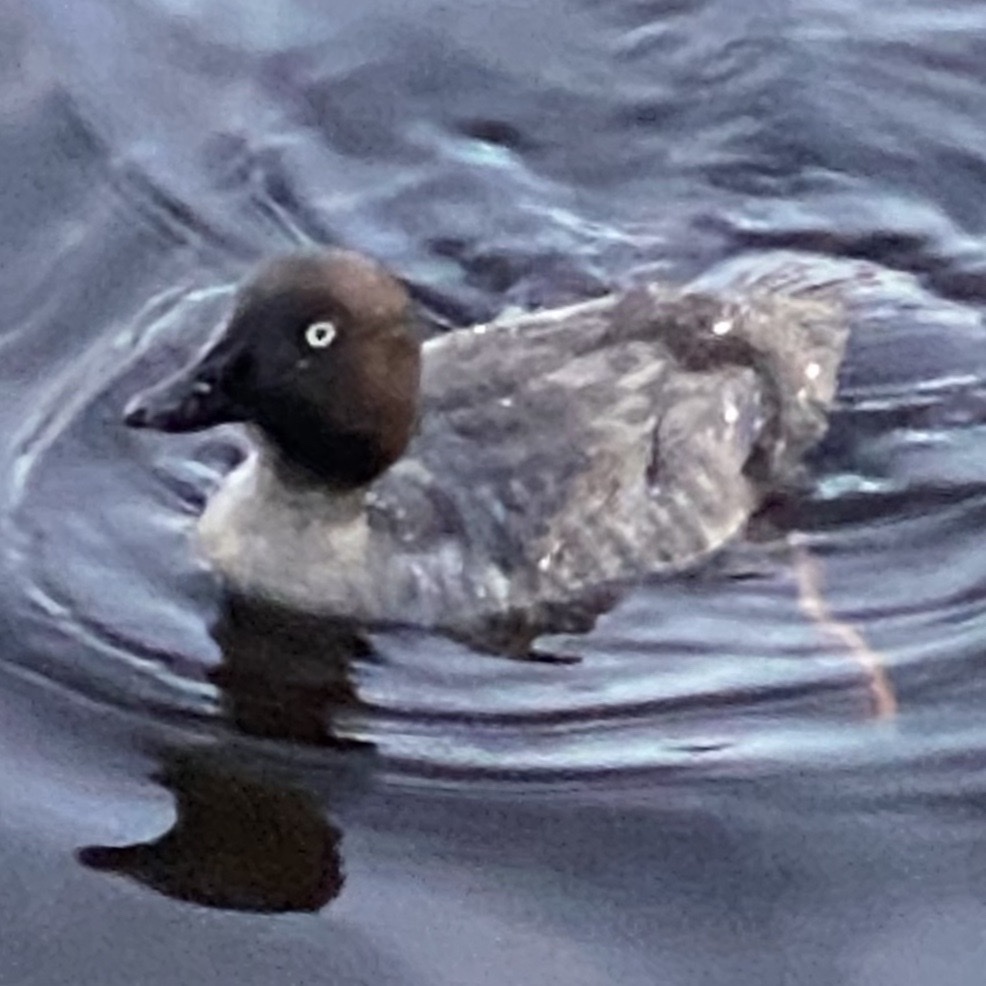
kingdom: Animalia
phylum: Chordata
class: Aves
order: Anseriformes
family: Anatidae
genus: Bucephala
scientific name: Bucephala clangula
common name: Common goldeneye
